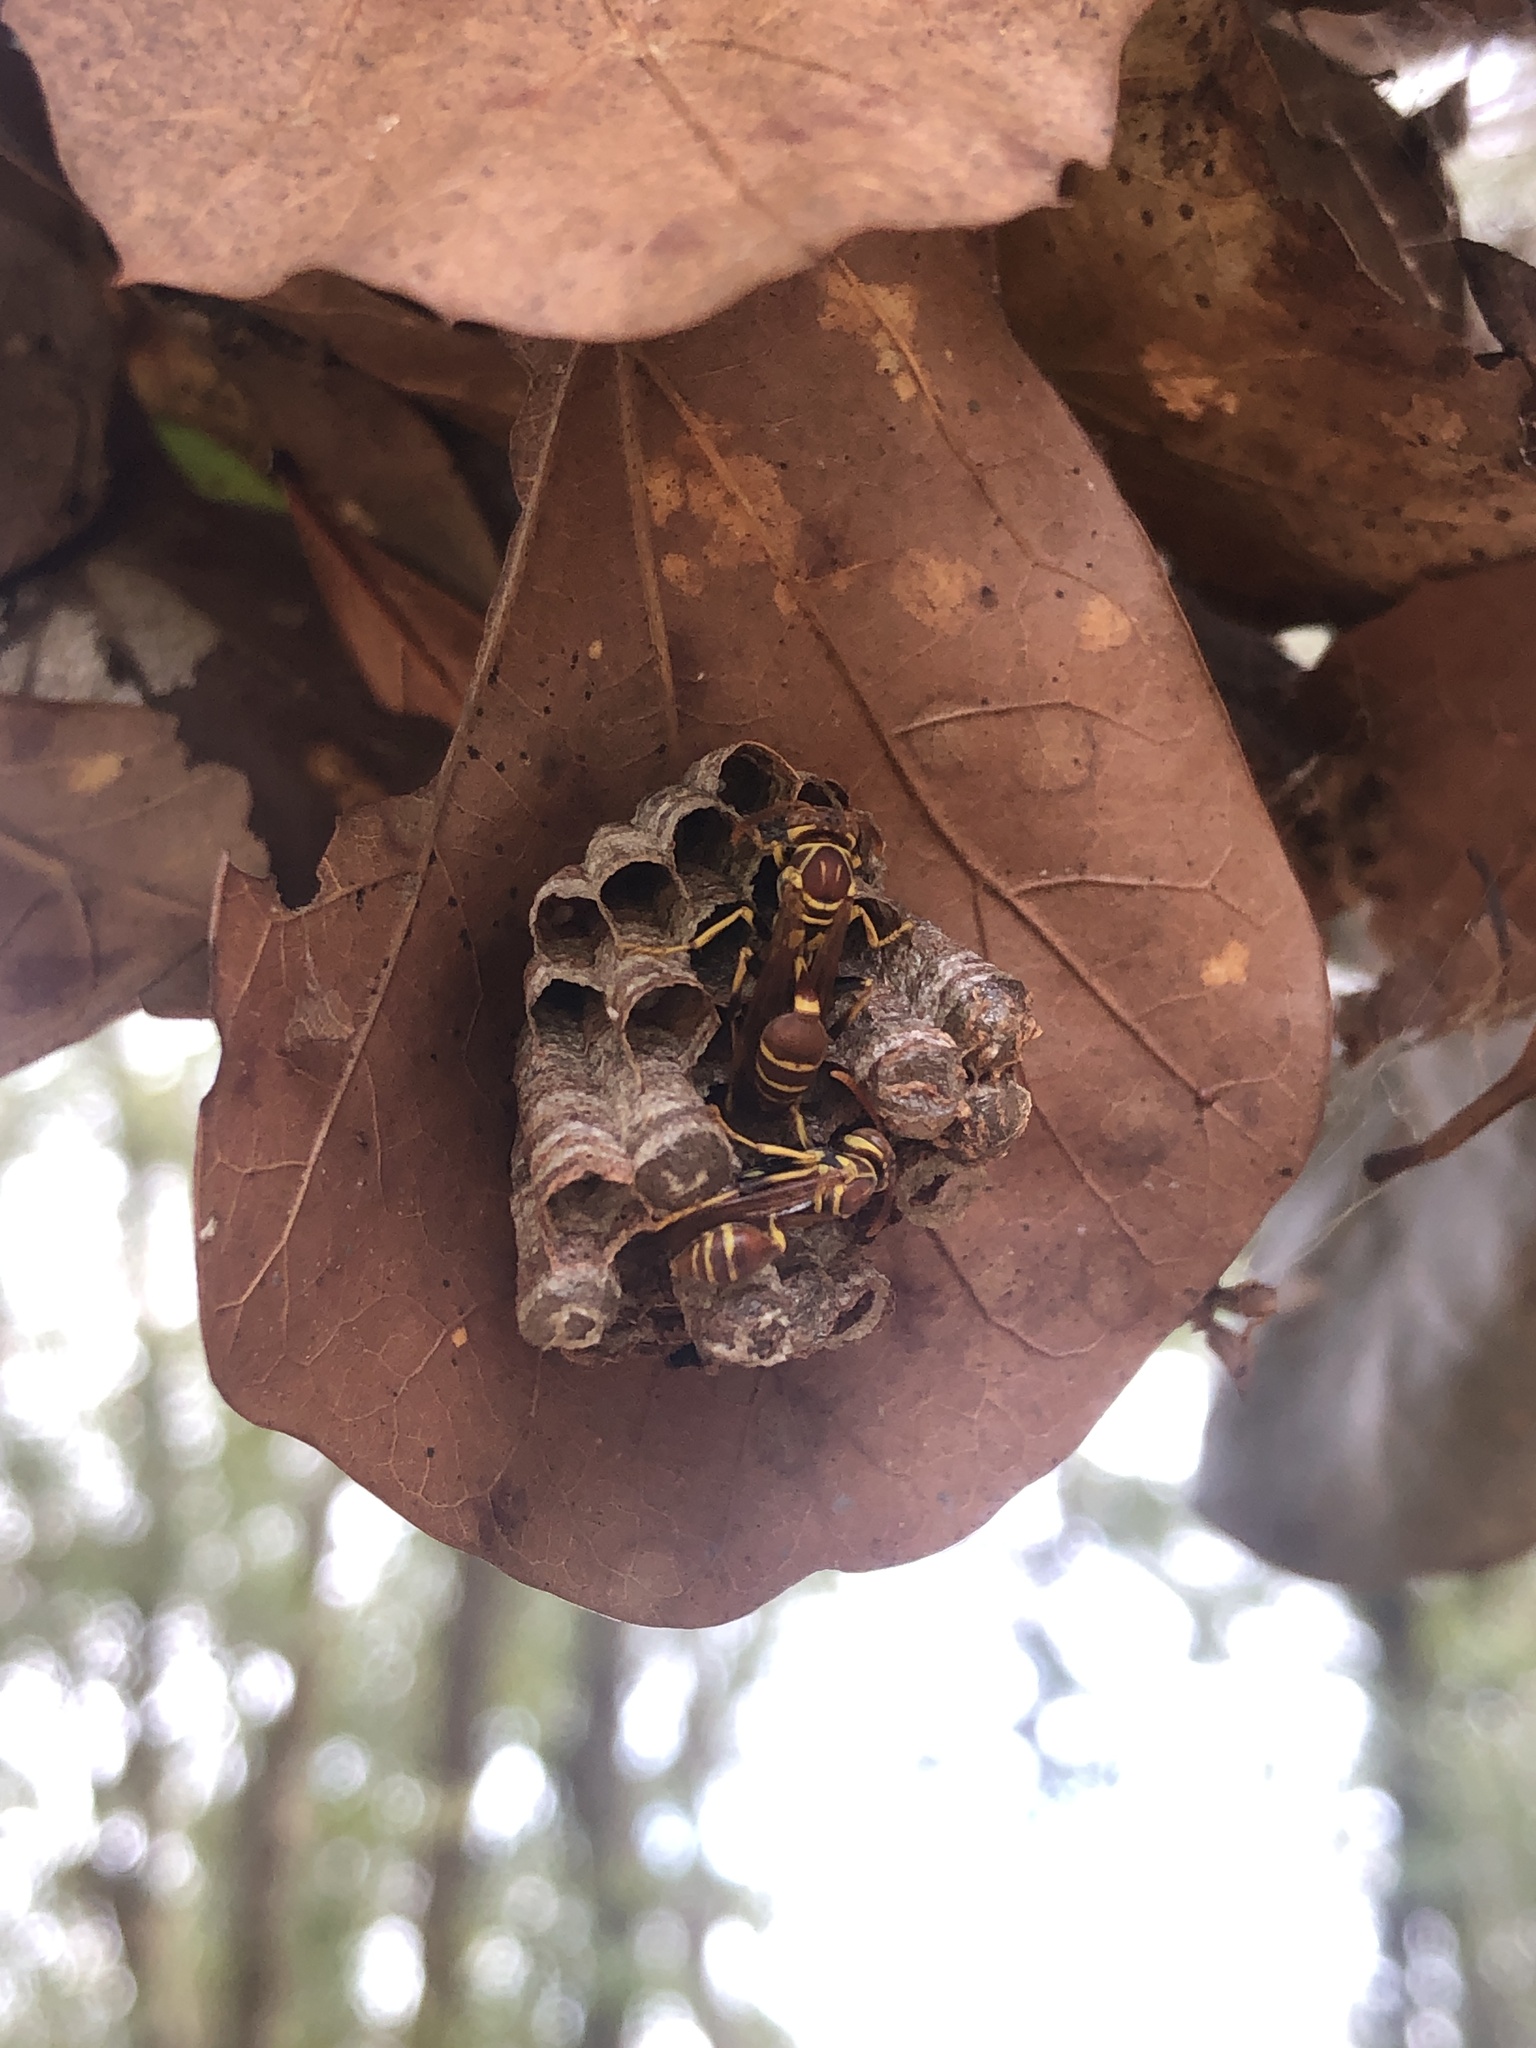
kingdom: Animalia
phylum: Arthropoda
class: Insecta
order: Hymenoptera
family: Vespidae
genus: Mischocyttarus
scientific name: Mischocyttarus mexicanus
